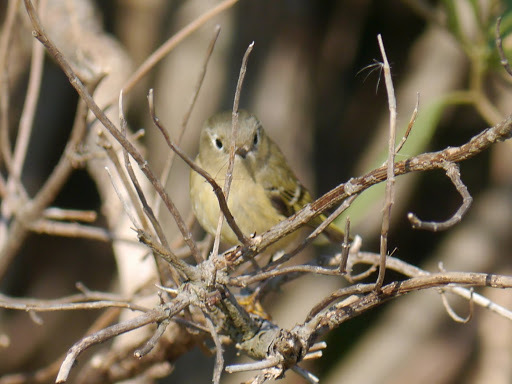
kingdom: Animalia
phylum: Chordata
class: Aves
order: Passeriformes
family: Regulidae
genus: Regulus
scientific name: Regulus calendula
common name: Ruby-crowned kinglet
